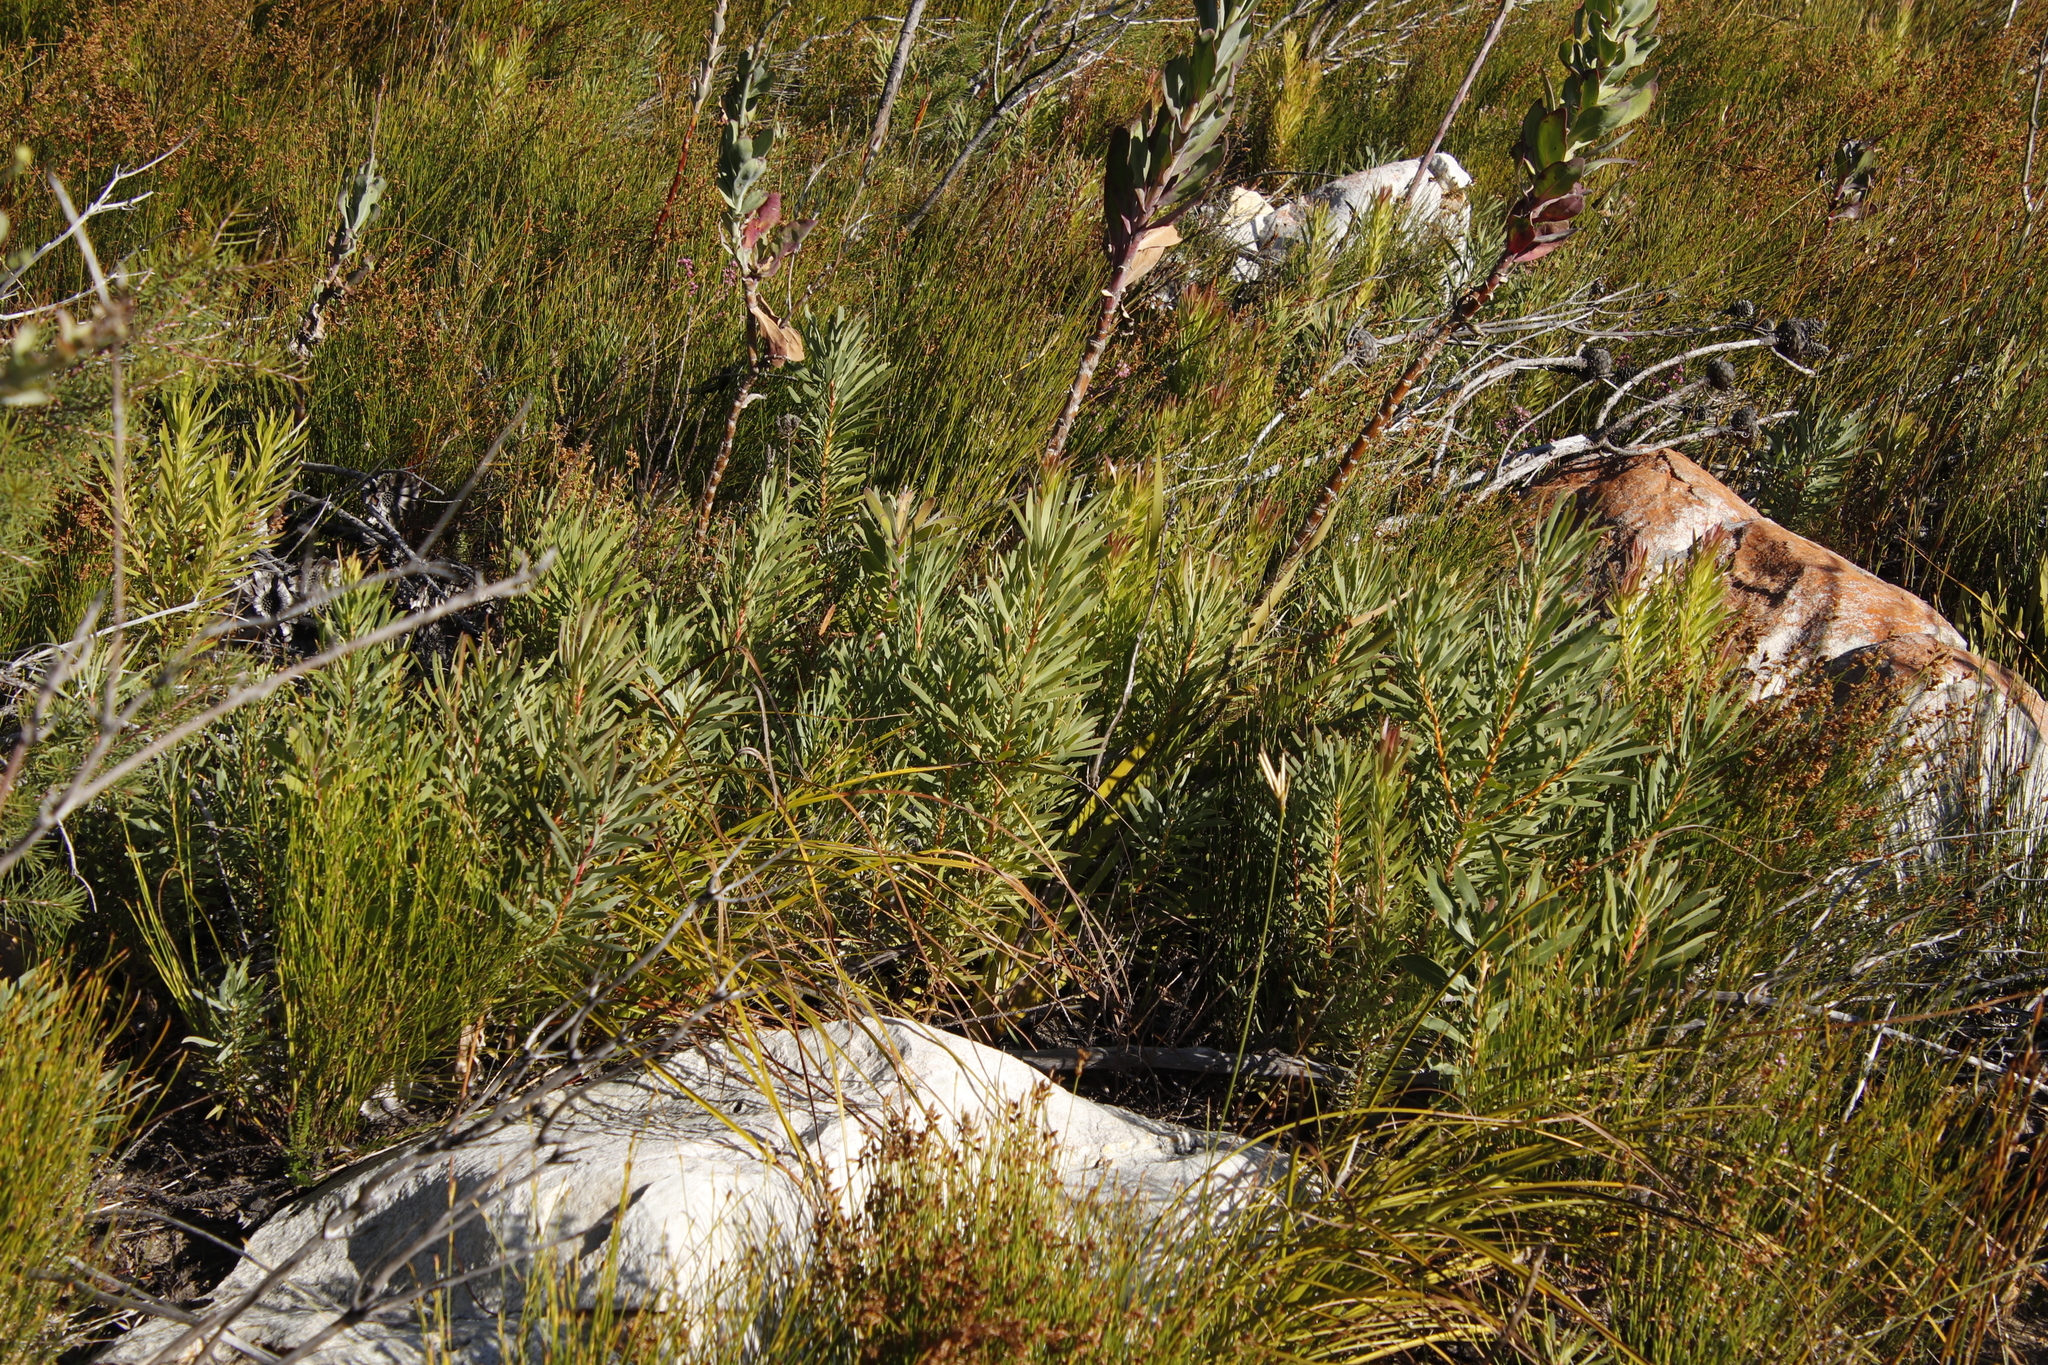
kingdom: Plantae
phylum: Tracheophyta
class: Magnoliopsida
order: Proteales
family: Proteaceae
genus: Protea
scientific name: Protea repens
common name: Sugarbush
